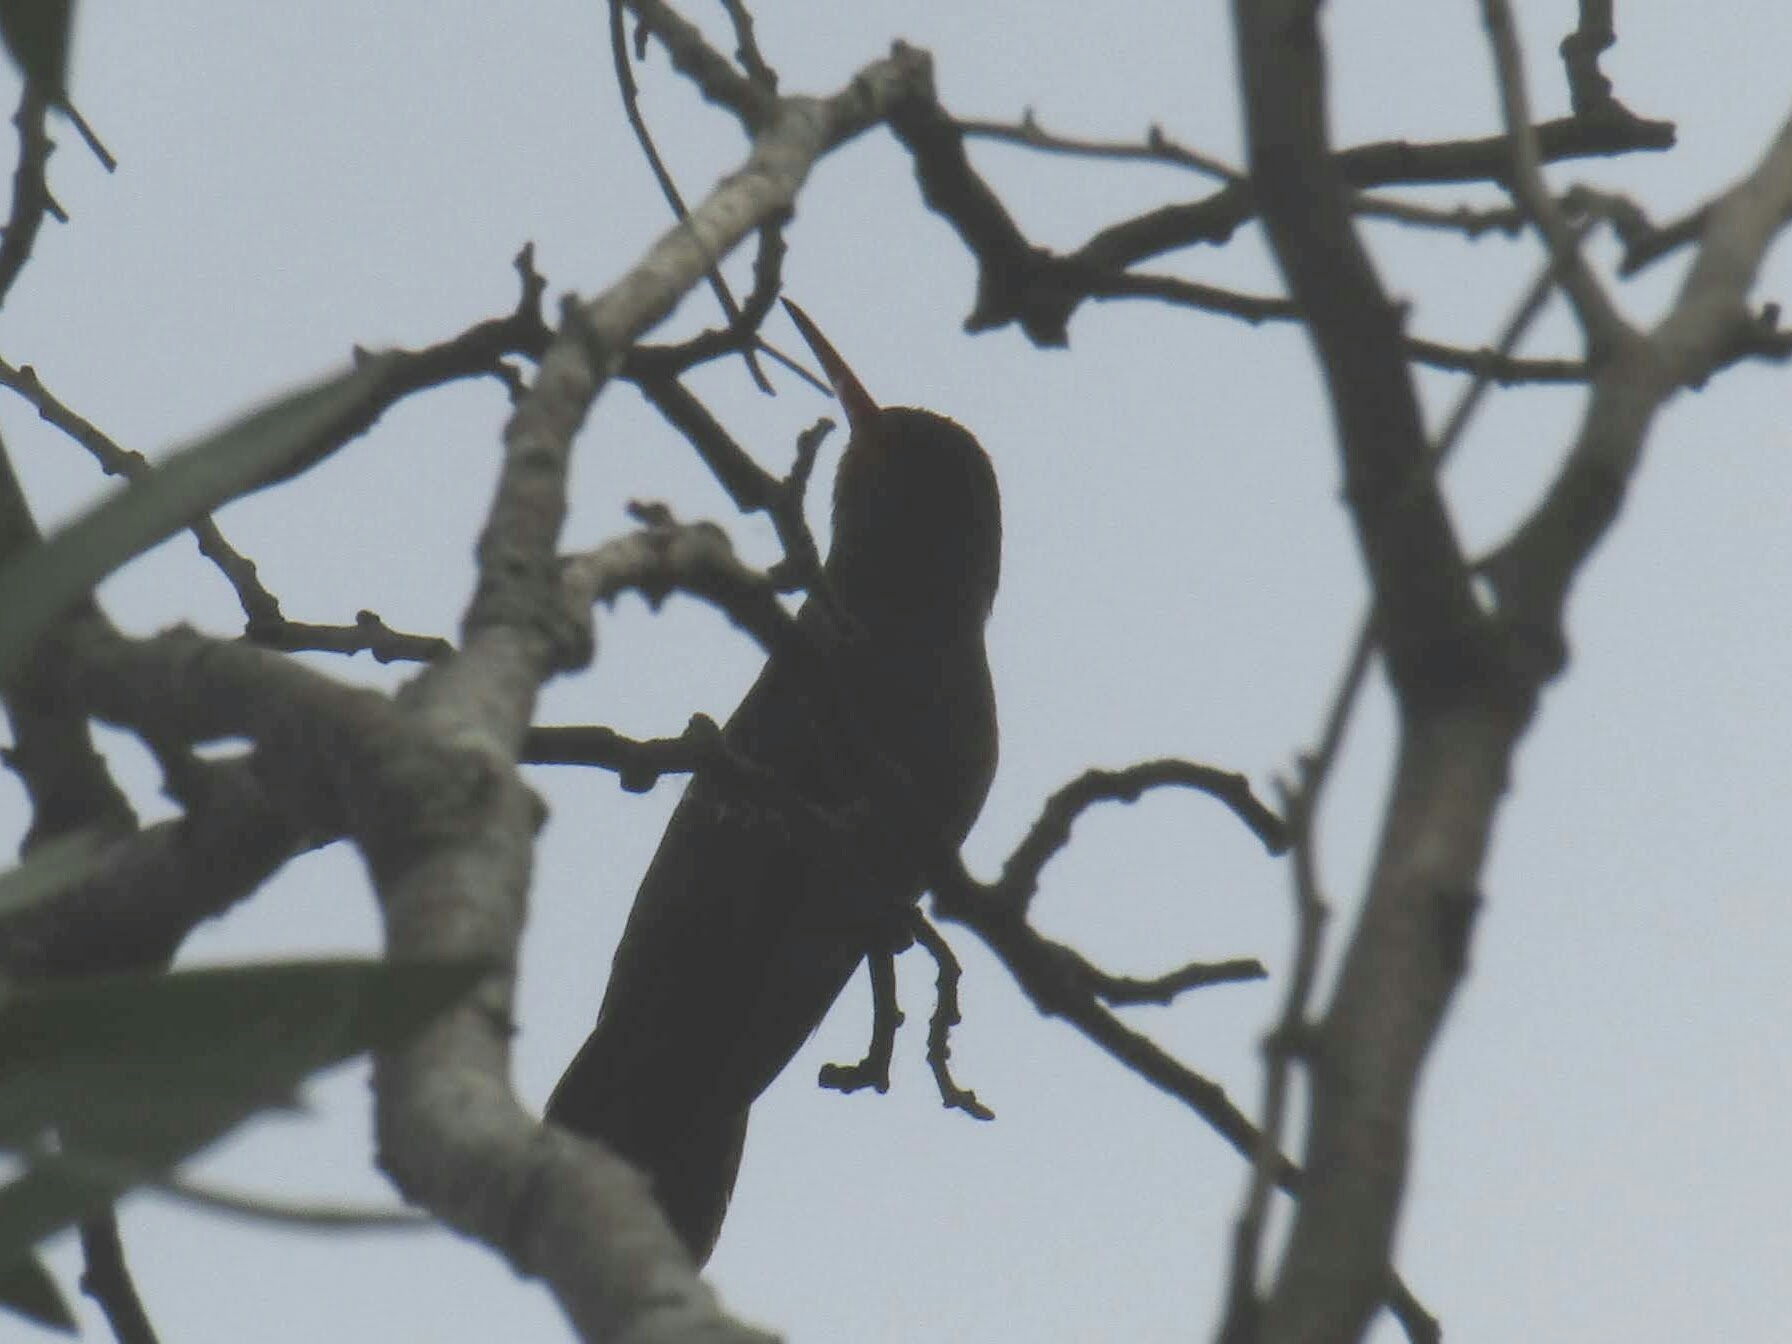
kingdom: Animalia
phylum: Chordata
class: Aves
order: Apodiformes
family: Trochilidae
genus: Hylocharis
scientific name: Hylocharis chrysura
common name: Gilded sapphire
